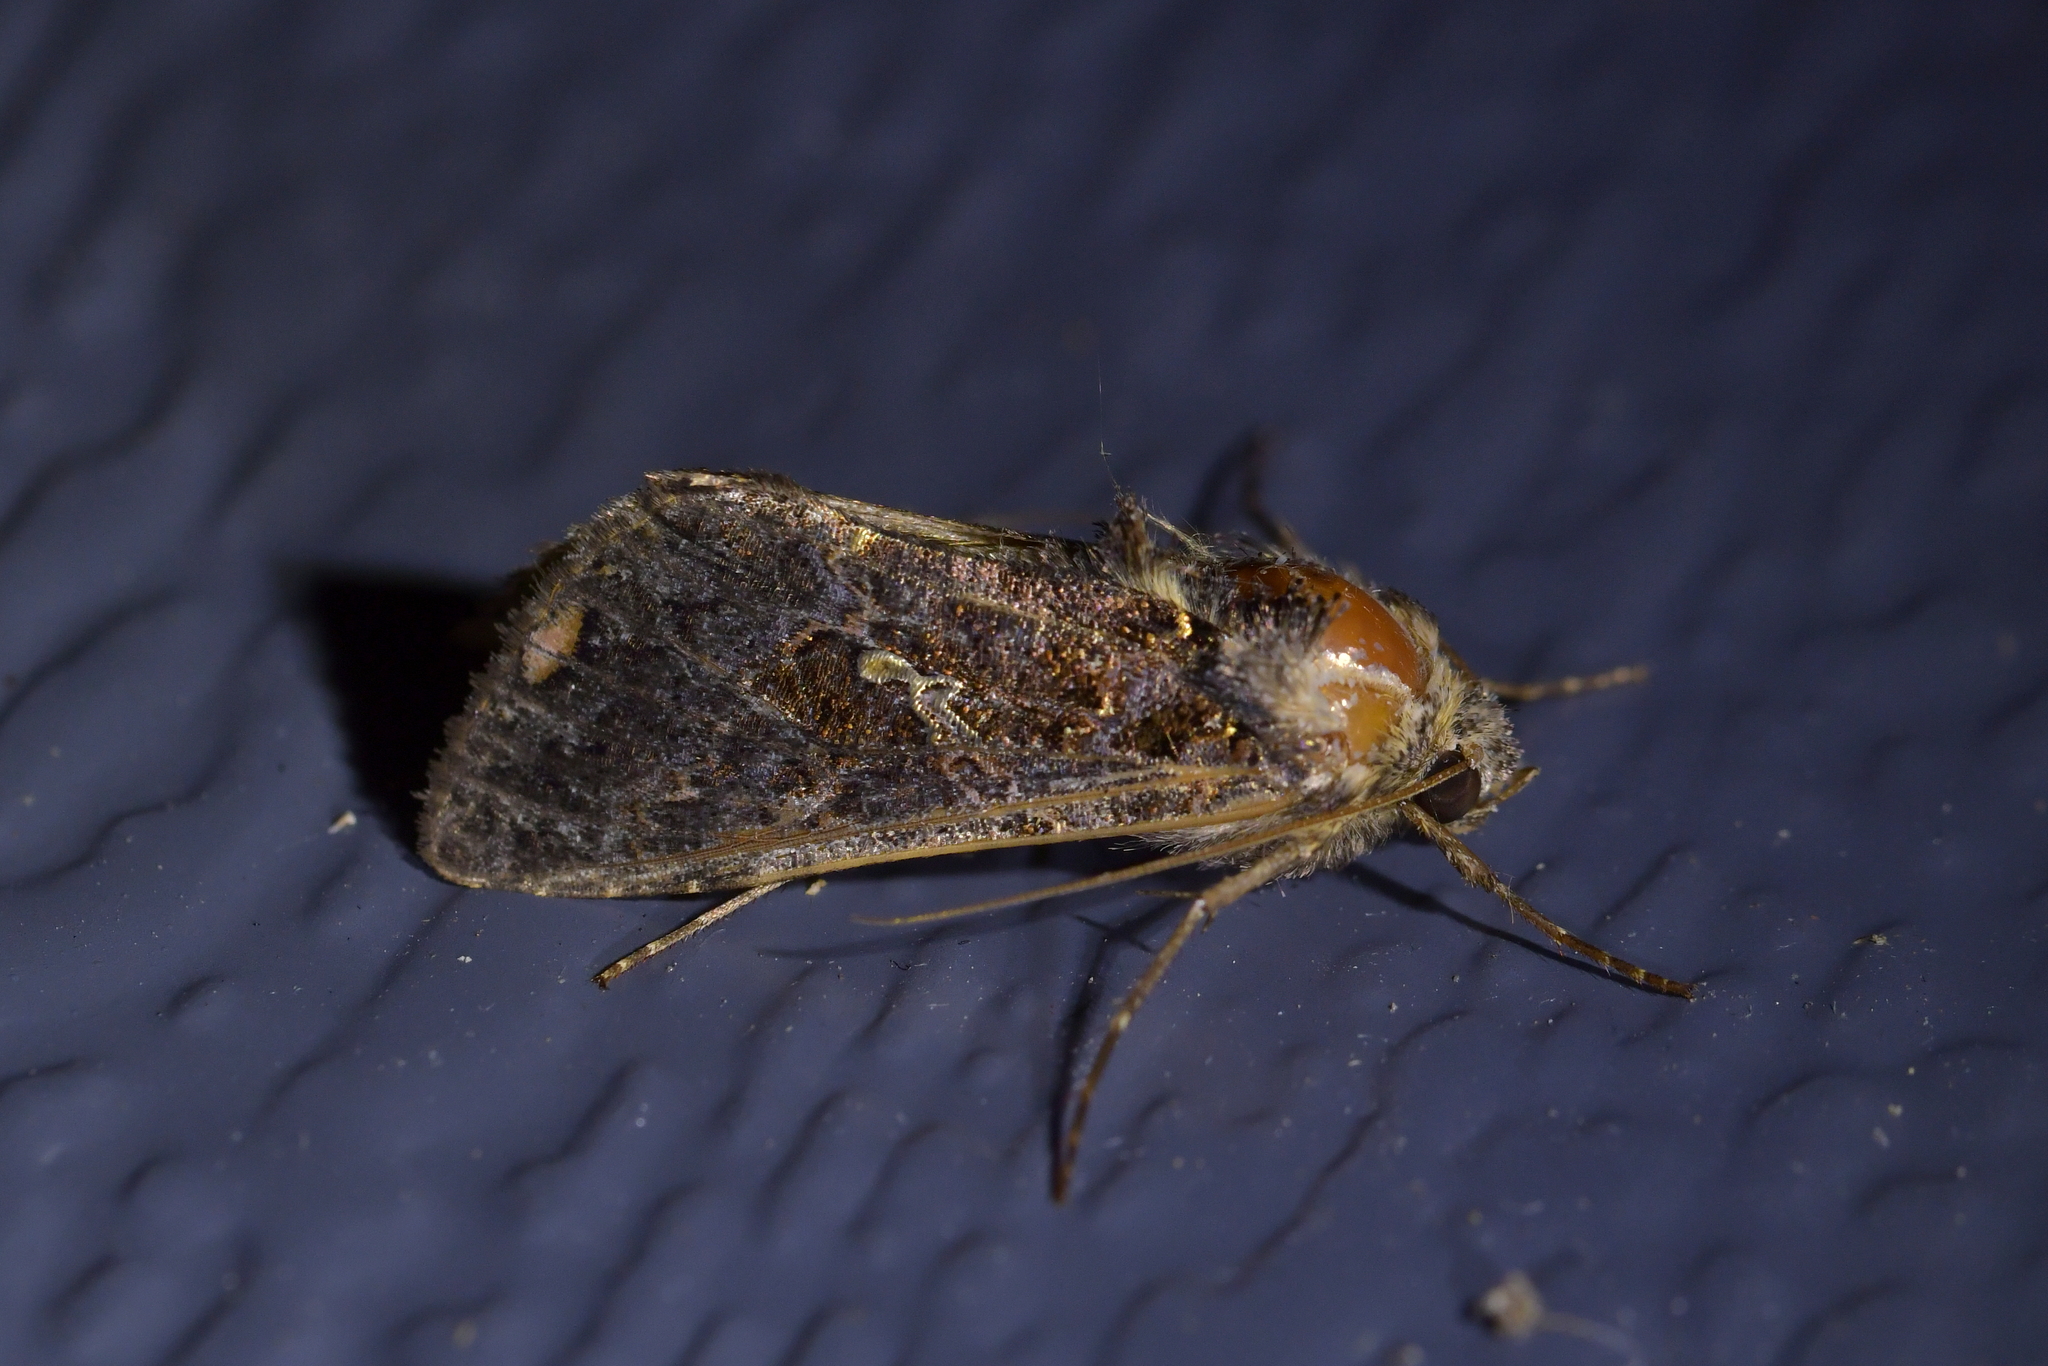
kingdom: Animalia
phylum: Arthropoda
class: Insecta
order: Lepidoptera
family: Noctuidae
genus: Ctenoplusia
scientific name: Ctenoplusia limbirena
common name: Scar bank gem
